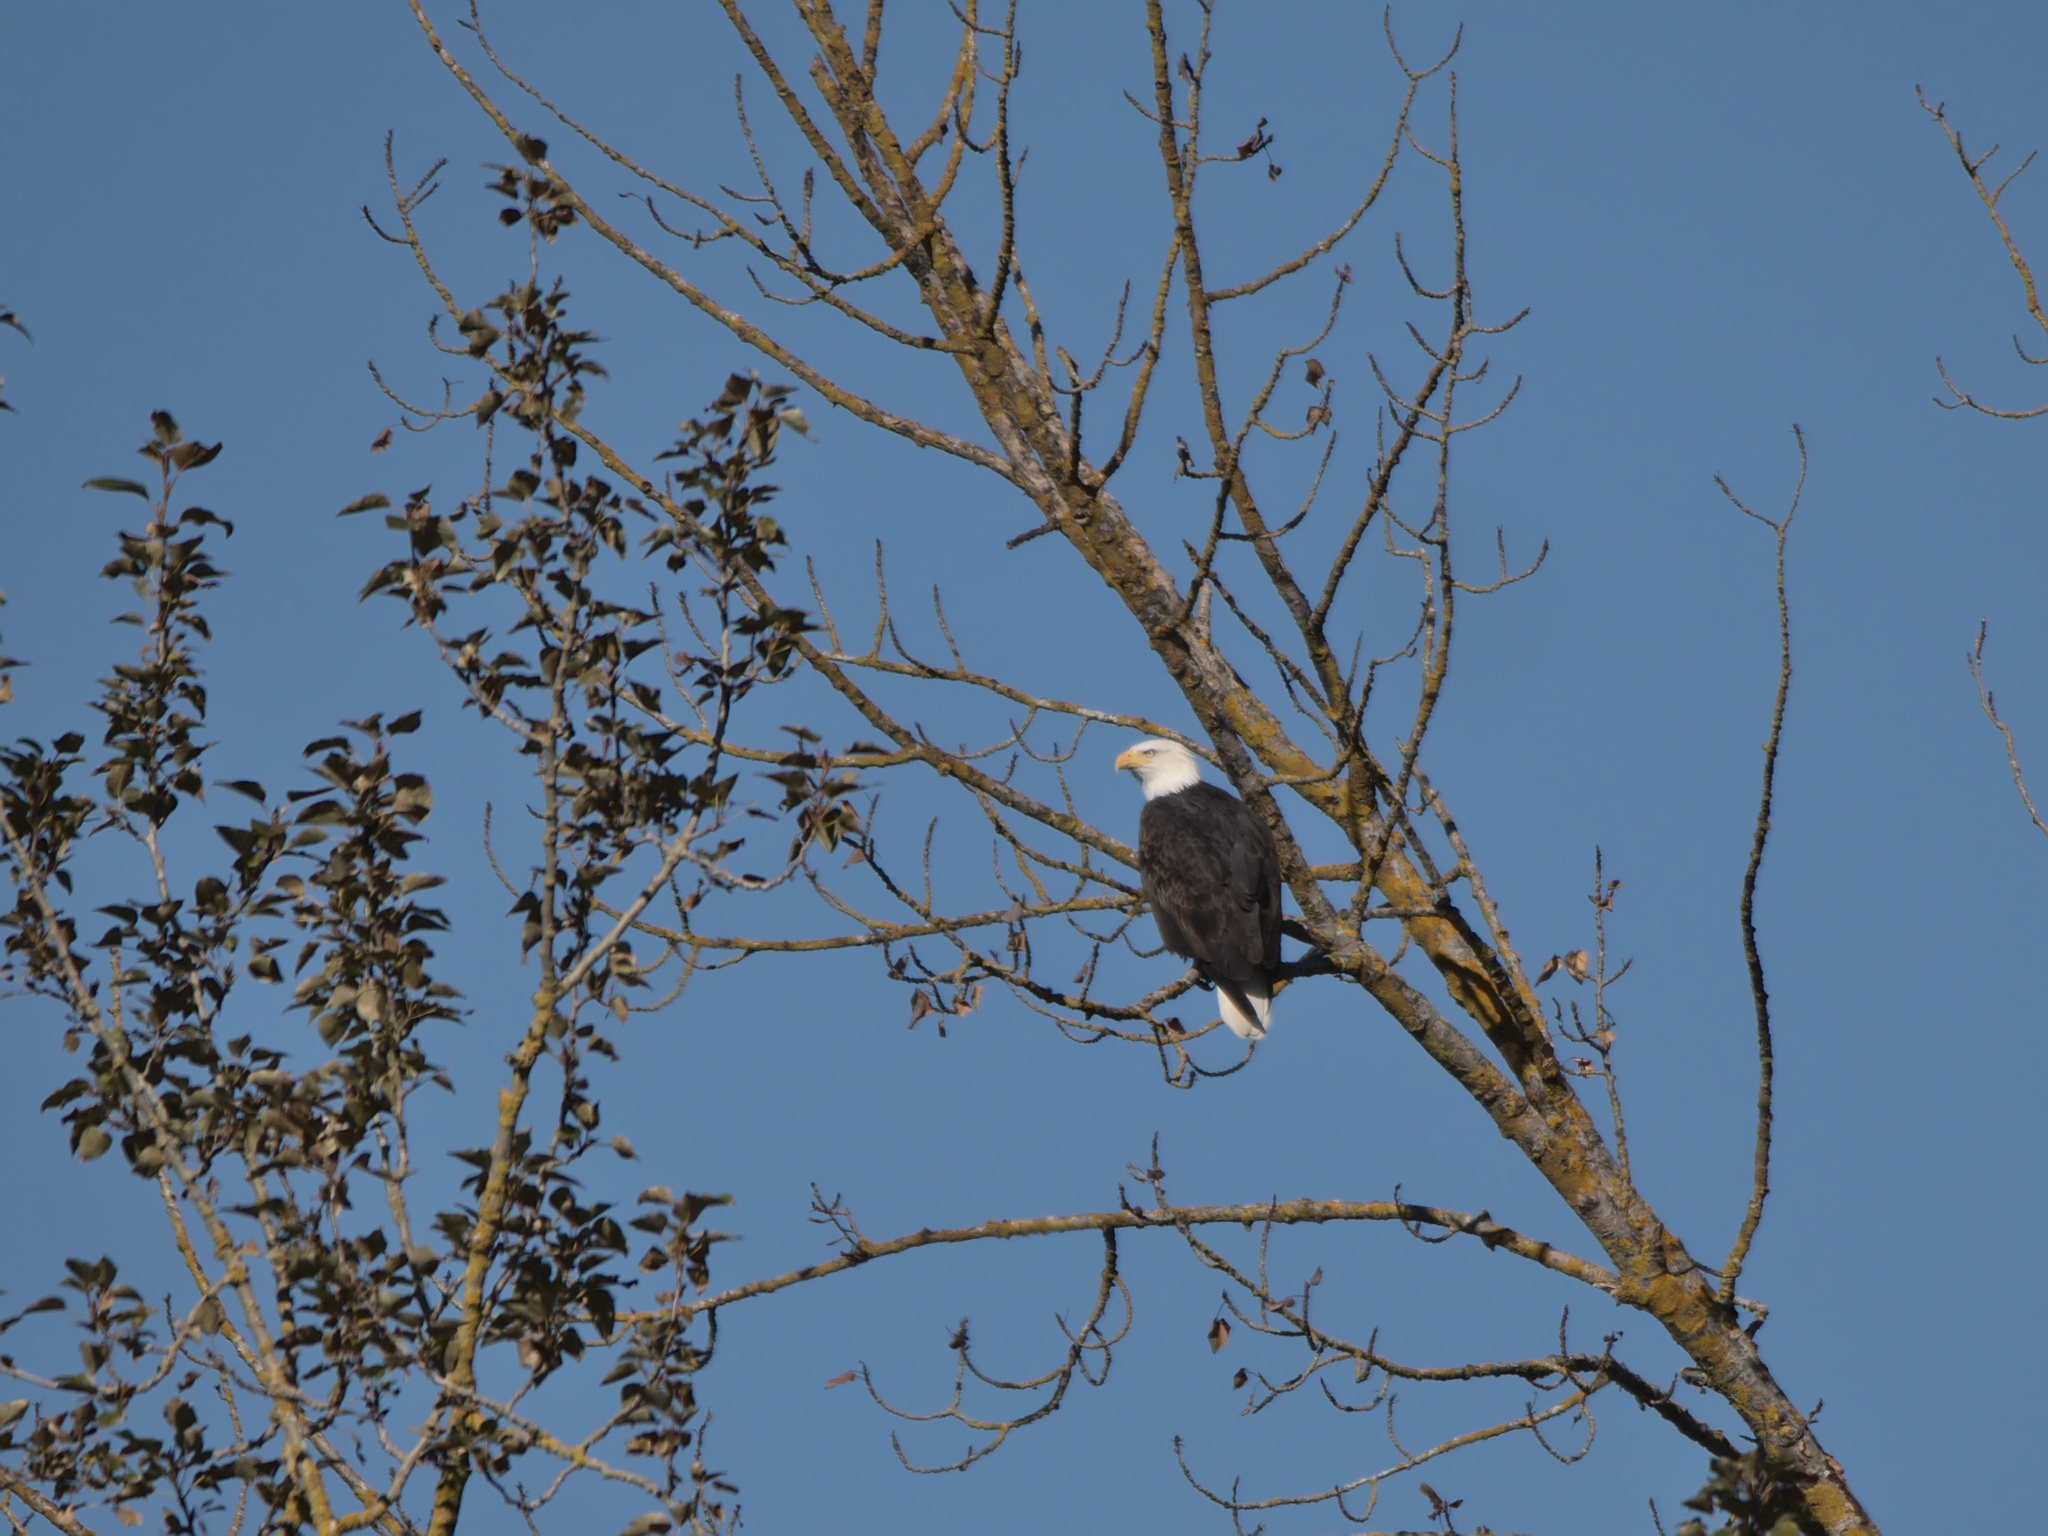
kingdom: Animalia
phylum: Chordata
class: Aves
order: Accipitriformes
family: Accipitridae
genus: Haliaeetus
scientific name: Haliaeetus leucocephalus
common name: Bald eagle
